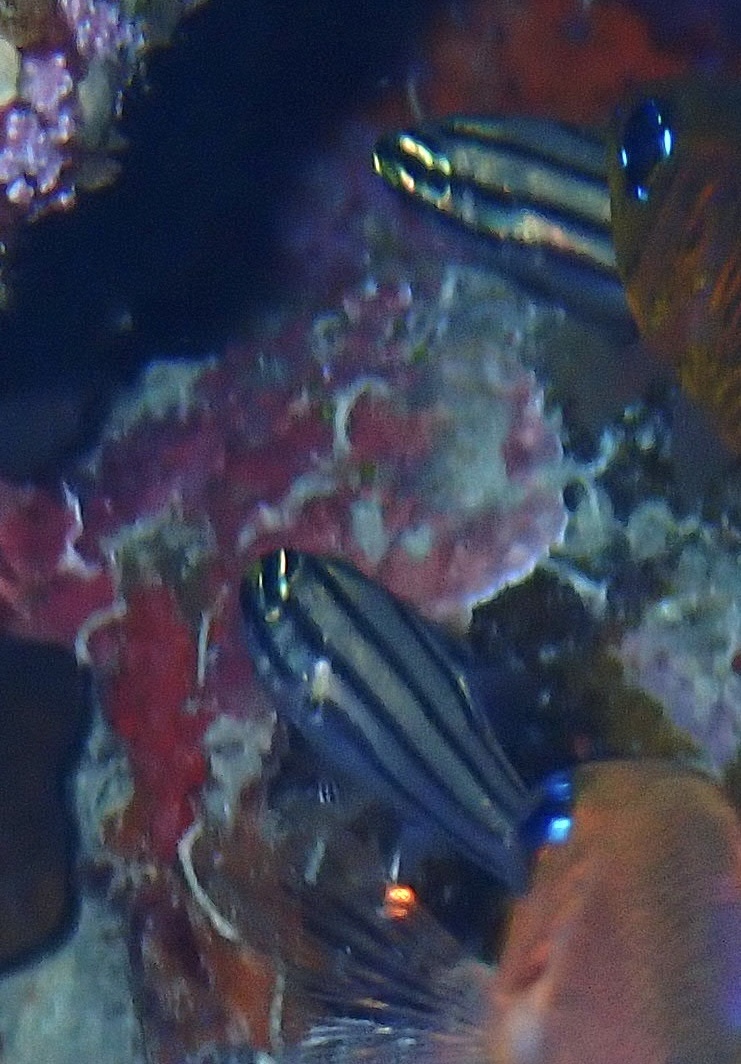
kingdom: Animalia
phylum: Chordata
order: Perciformes
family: Apogonidae
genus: Cheilodipterus
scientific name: Cheilodipterus quinquelineatus
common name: Five-lined cardinalfish
